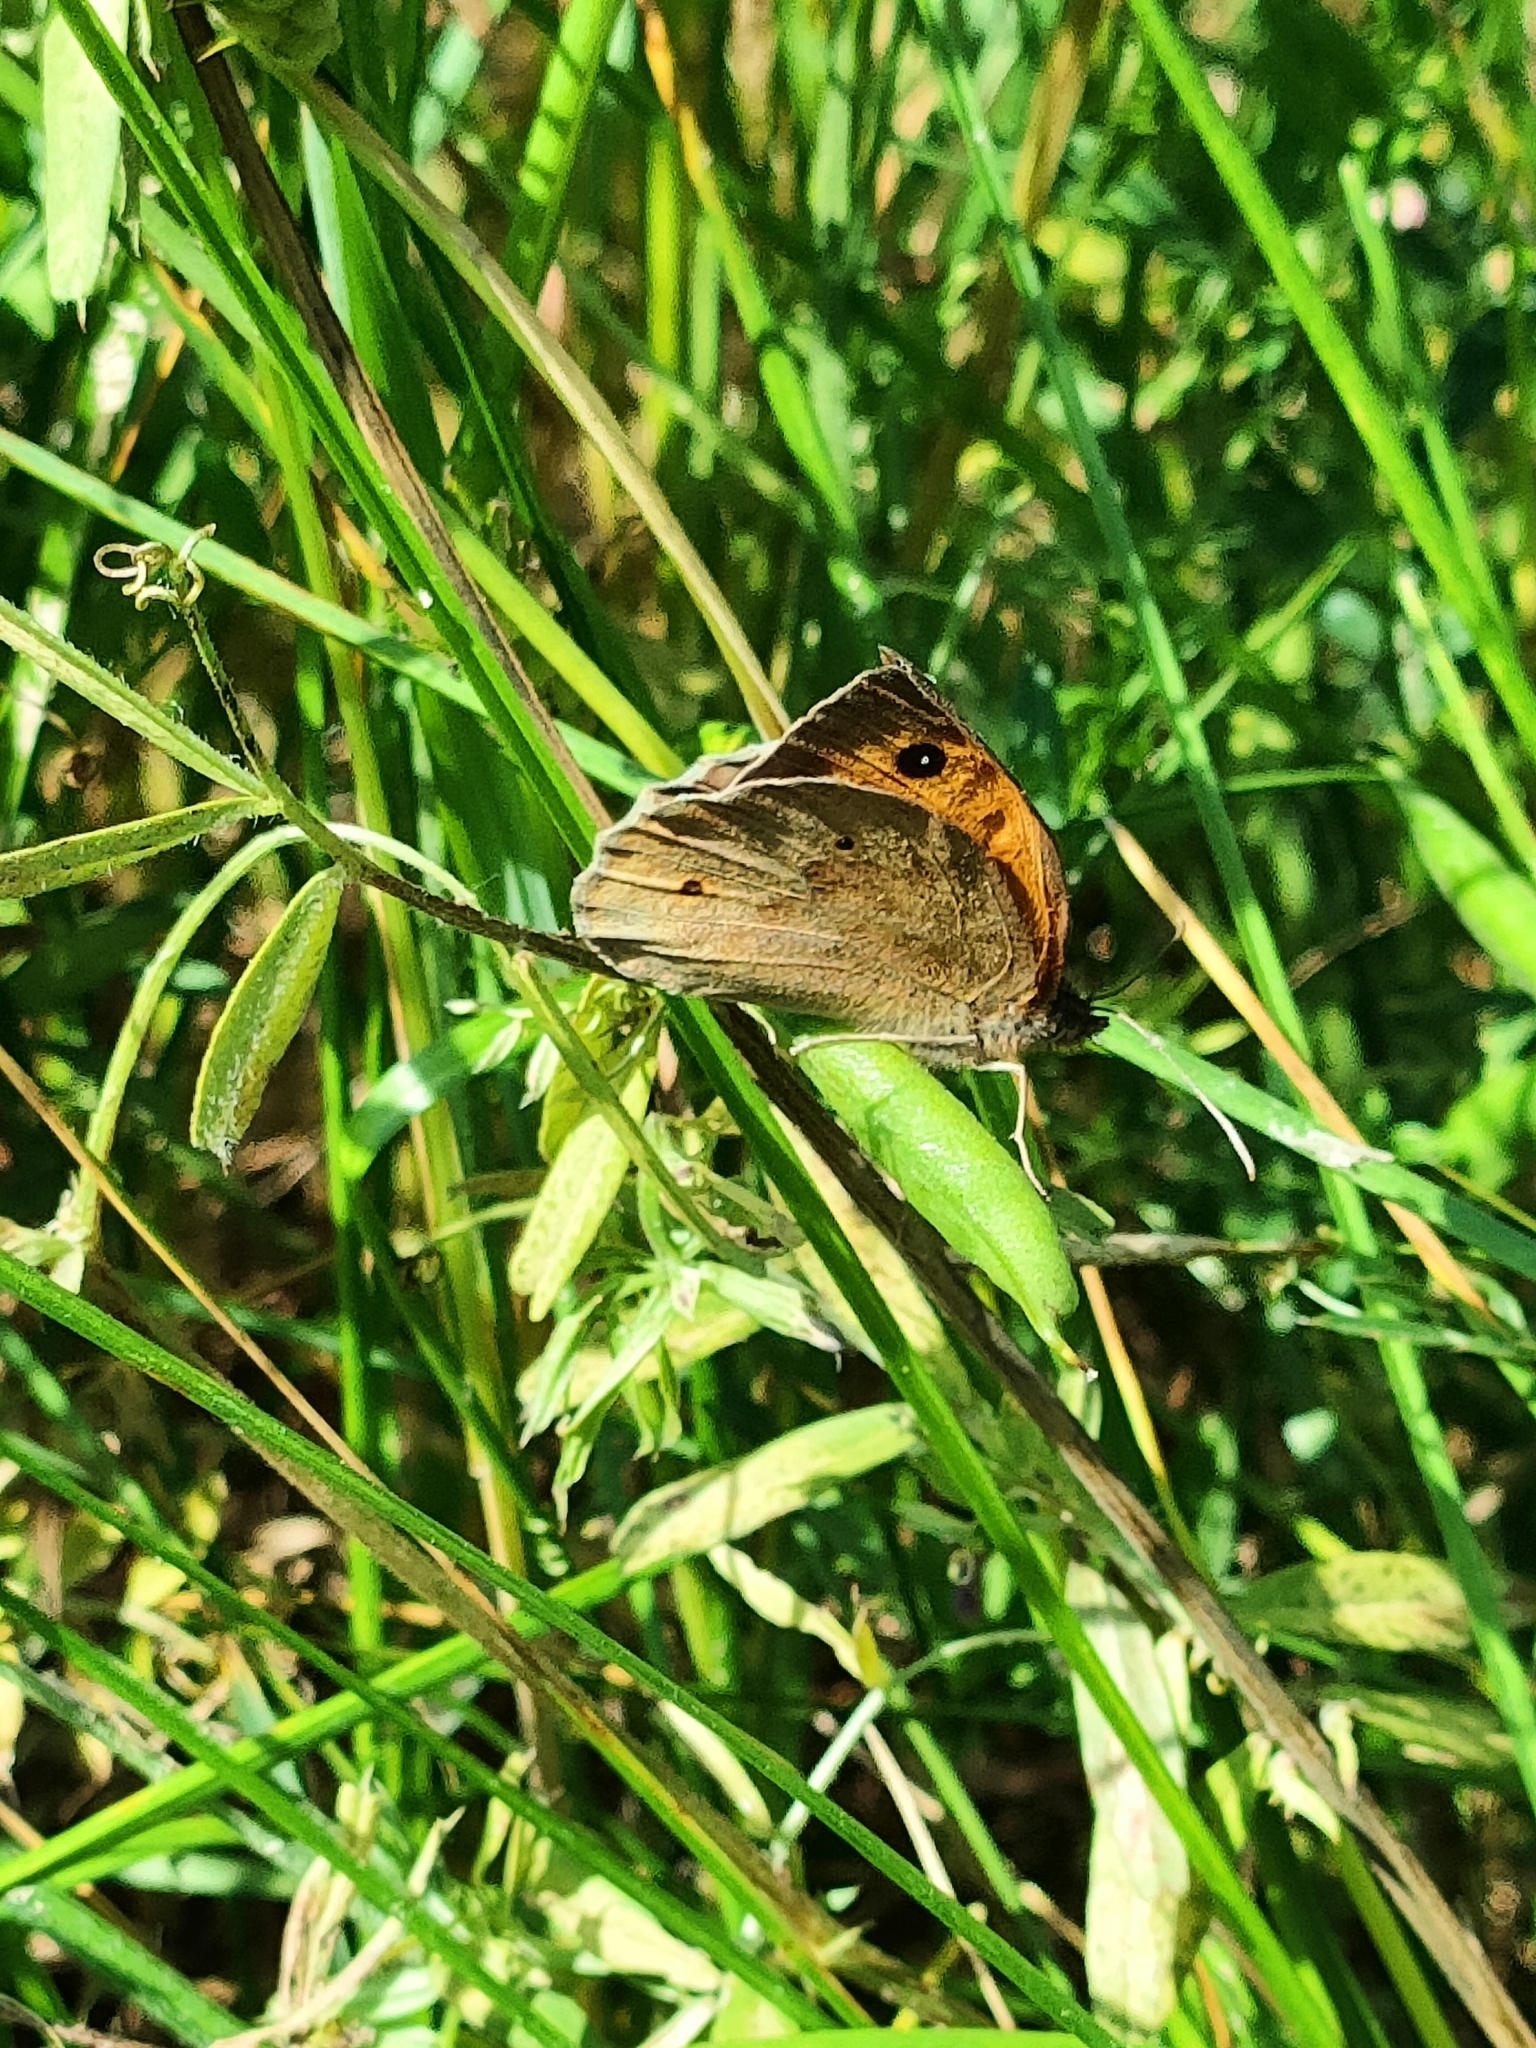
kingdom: Animalia
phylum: Arthropoda
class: Insecta
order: Lepidoptera
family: Nymphalidae
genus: Maniola
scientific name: Maniola jurtina
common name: Meadow brown
